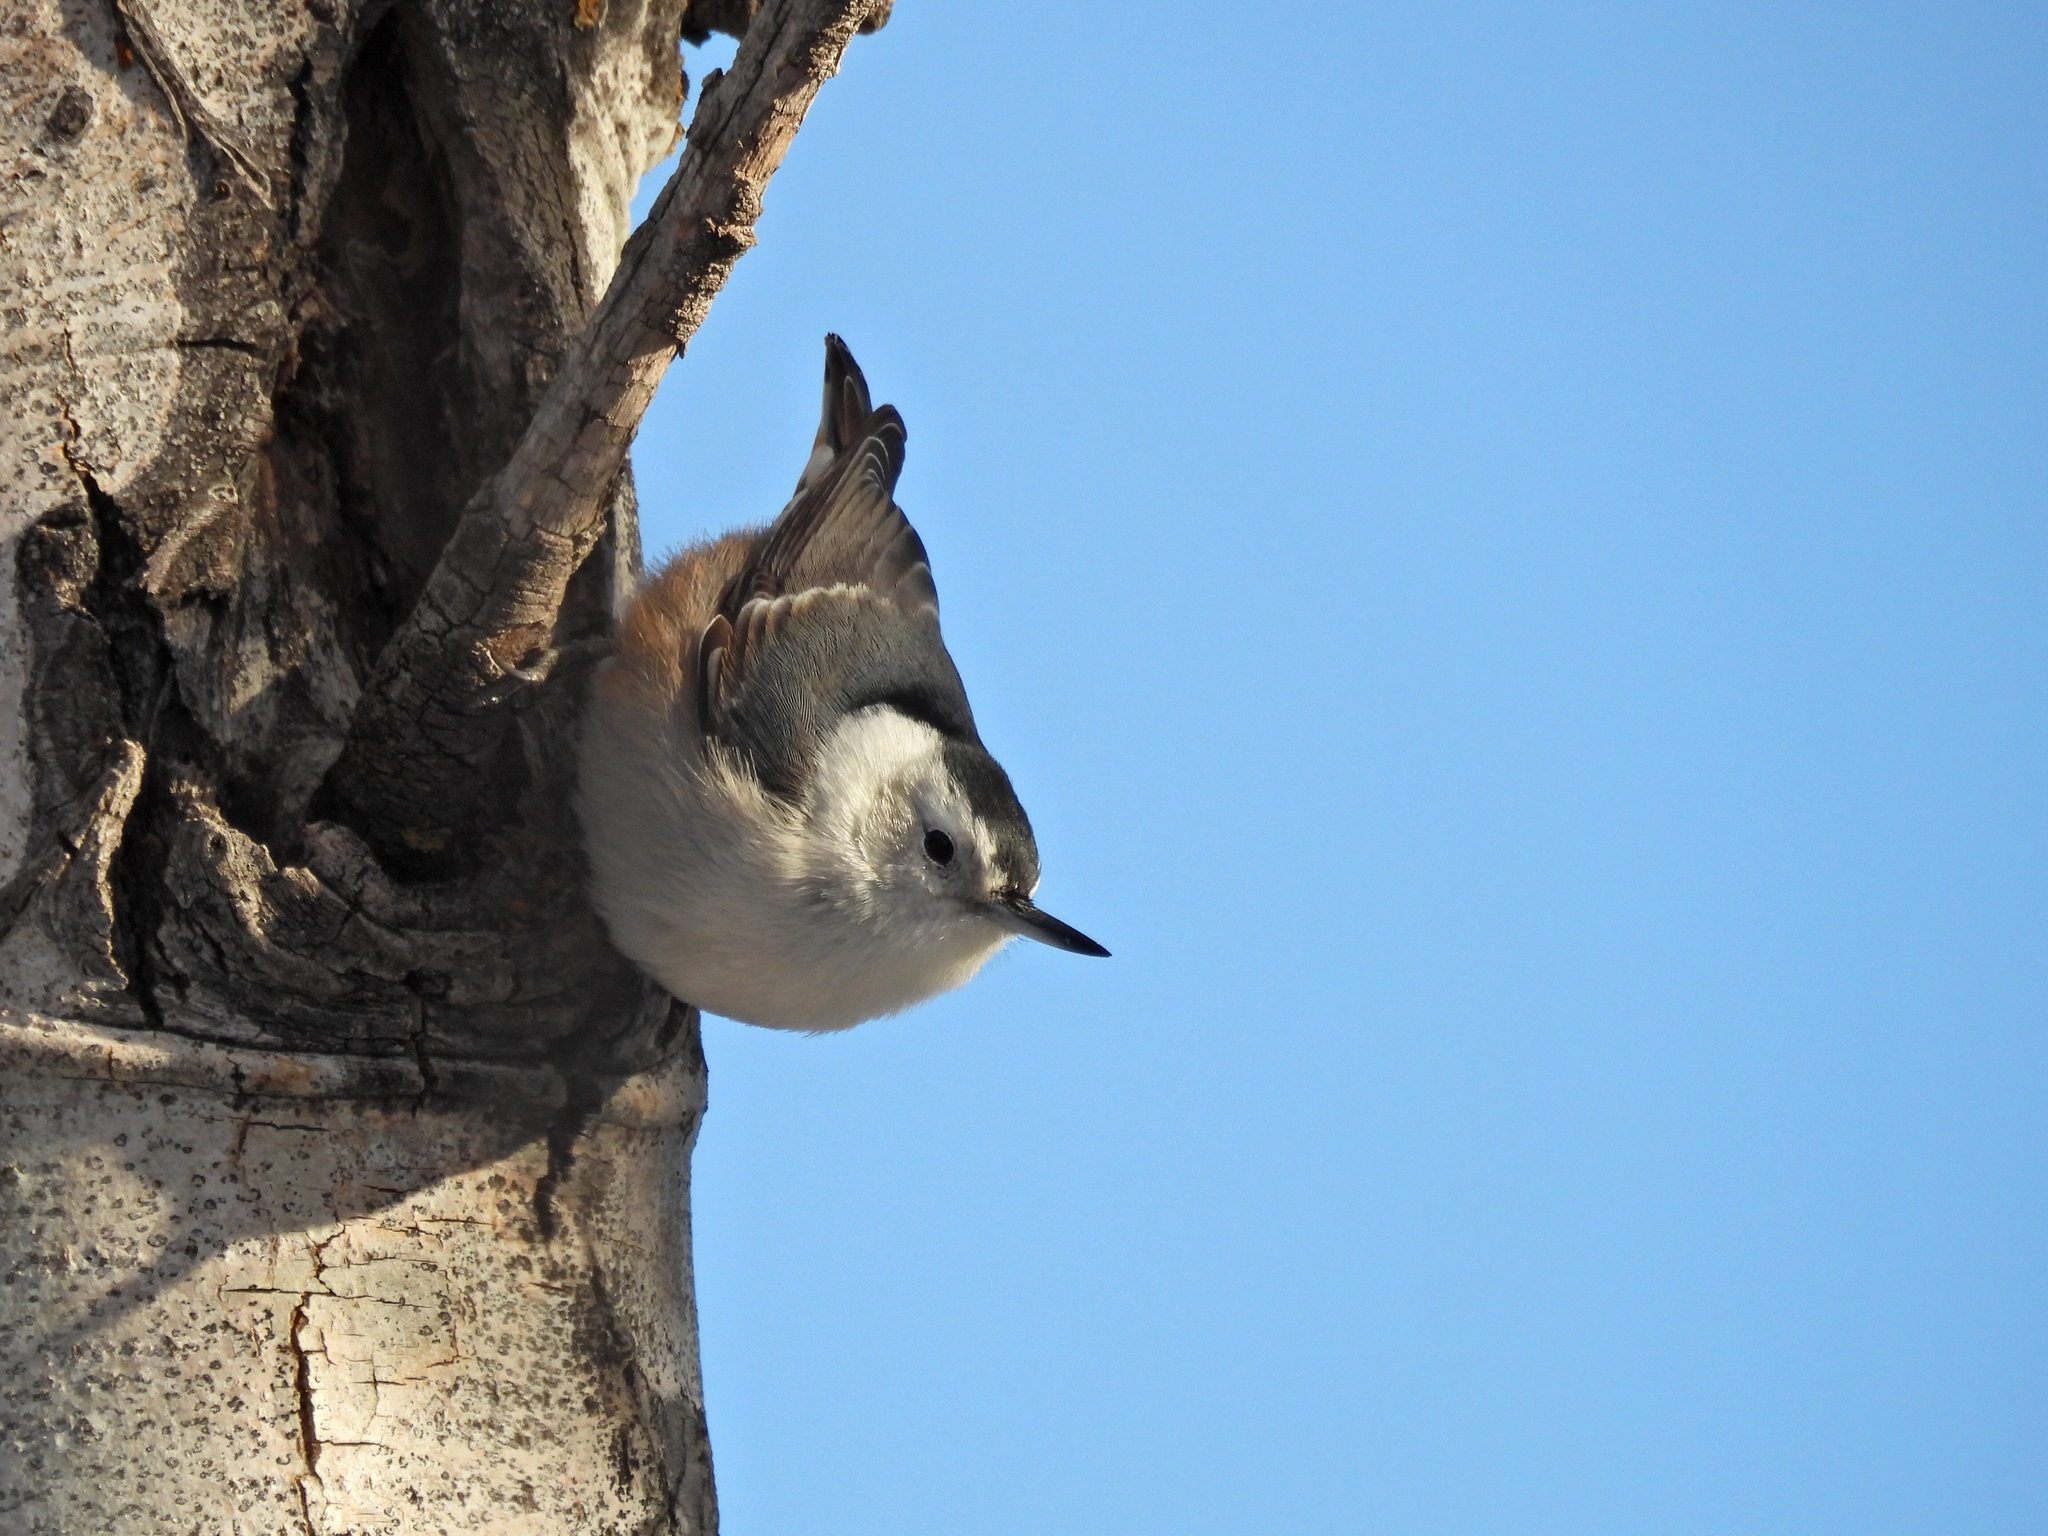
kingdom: Animalia
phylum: Chordata
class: Aves
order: Passeriformes
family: Sittidae
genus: Sitta
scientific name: Sitta carolinensis
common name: White-breasted nuthatch
